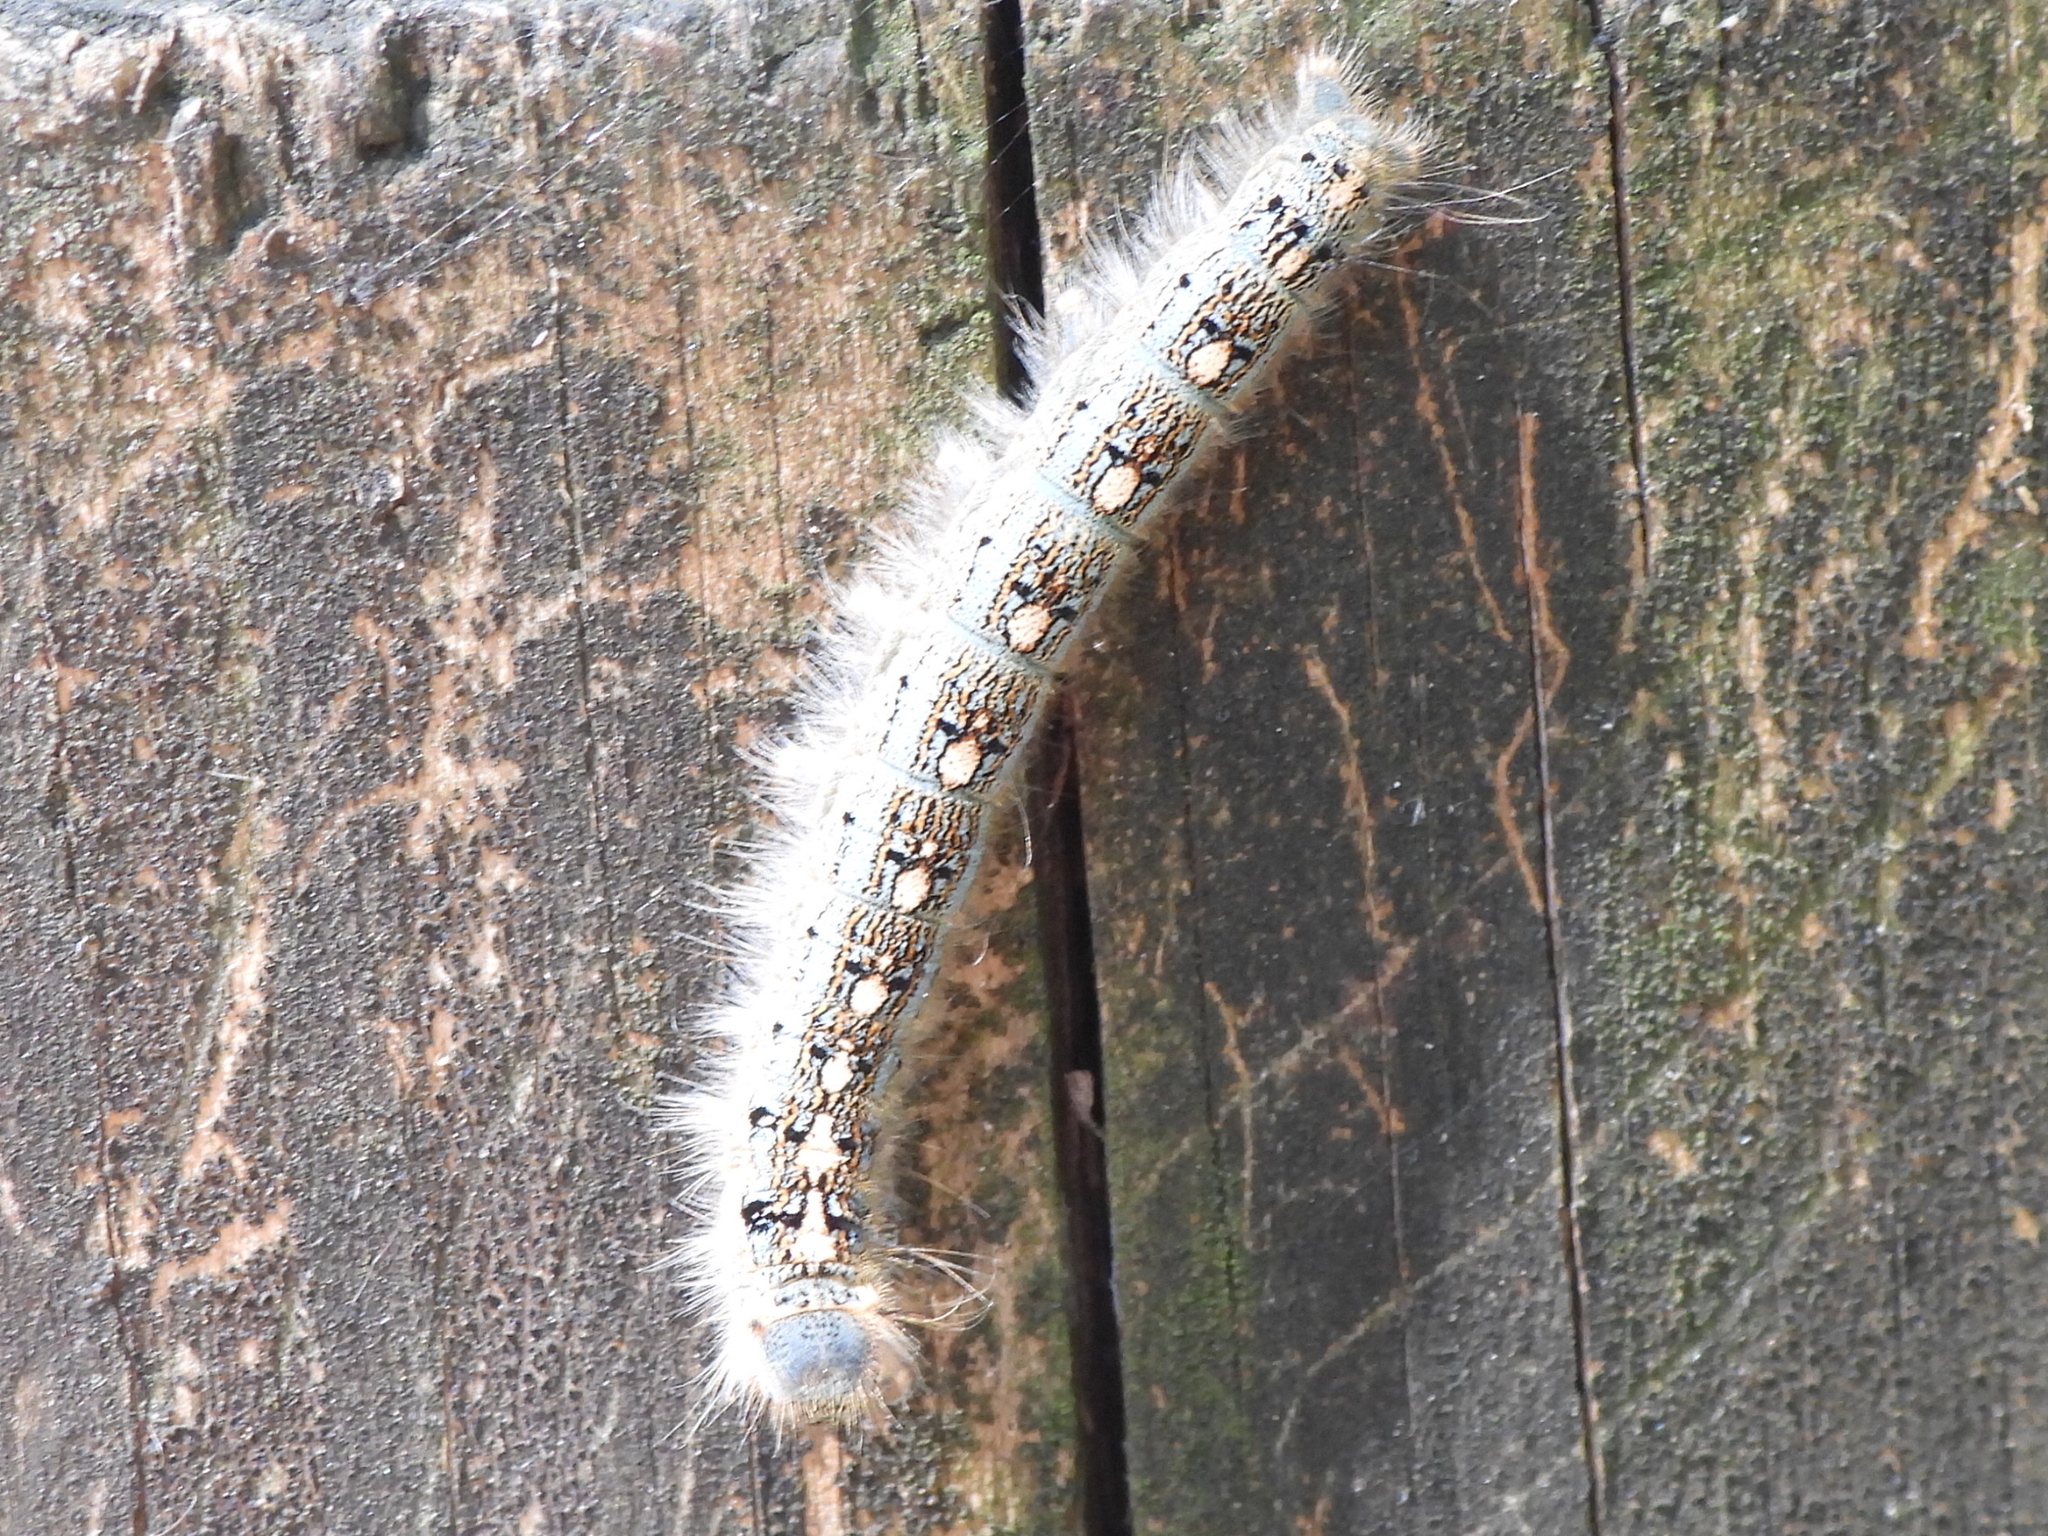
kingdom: Animalia
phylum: Arthropoda
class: Insecta
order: Lepidoptera
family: Lasiocampidae
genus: Malacosoma
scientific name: Malacosoma disstria
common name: Forest tent caterpillar
